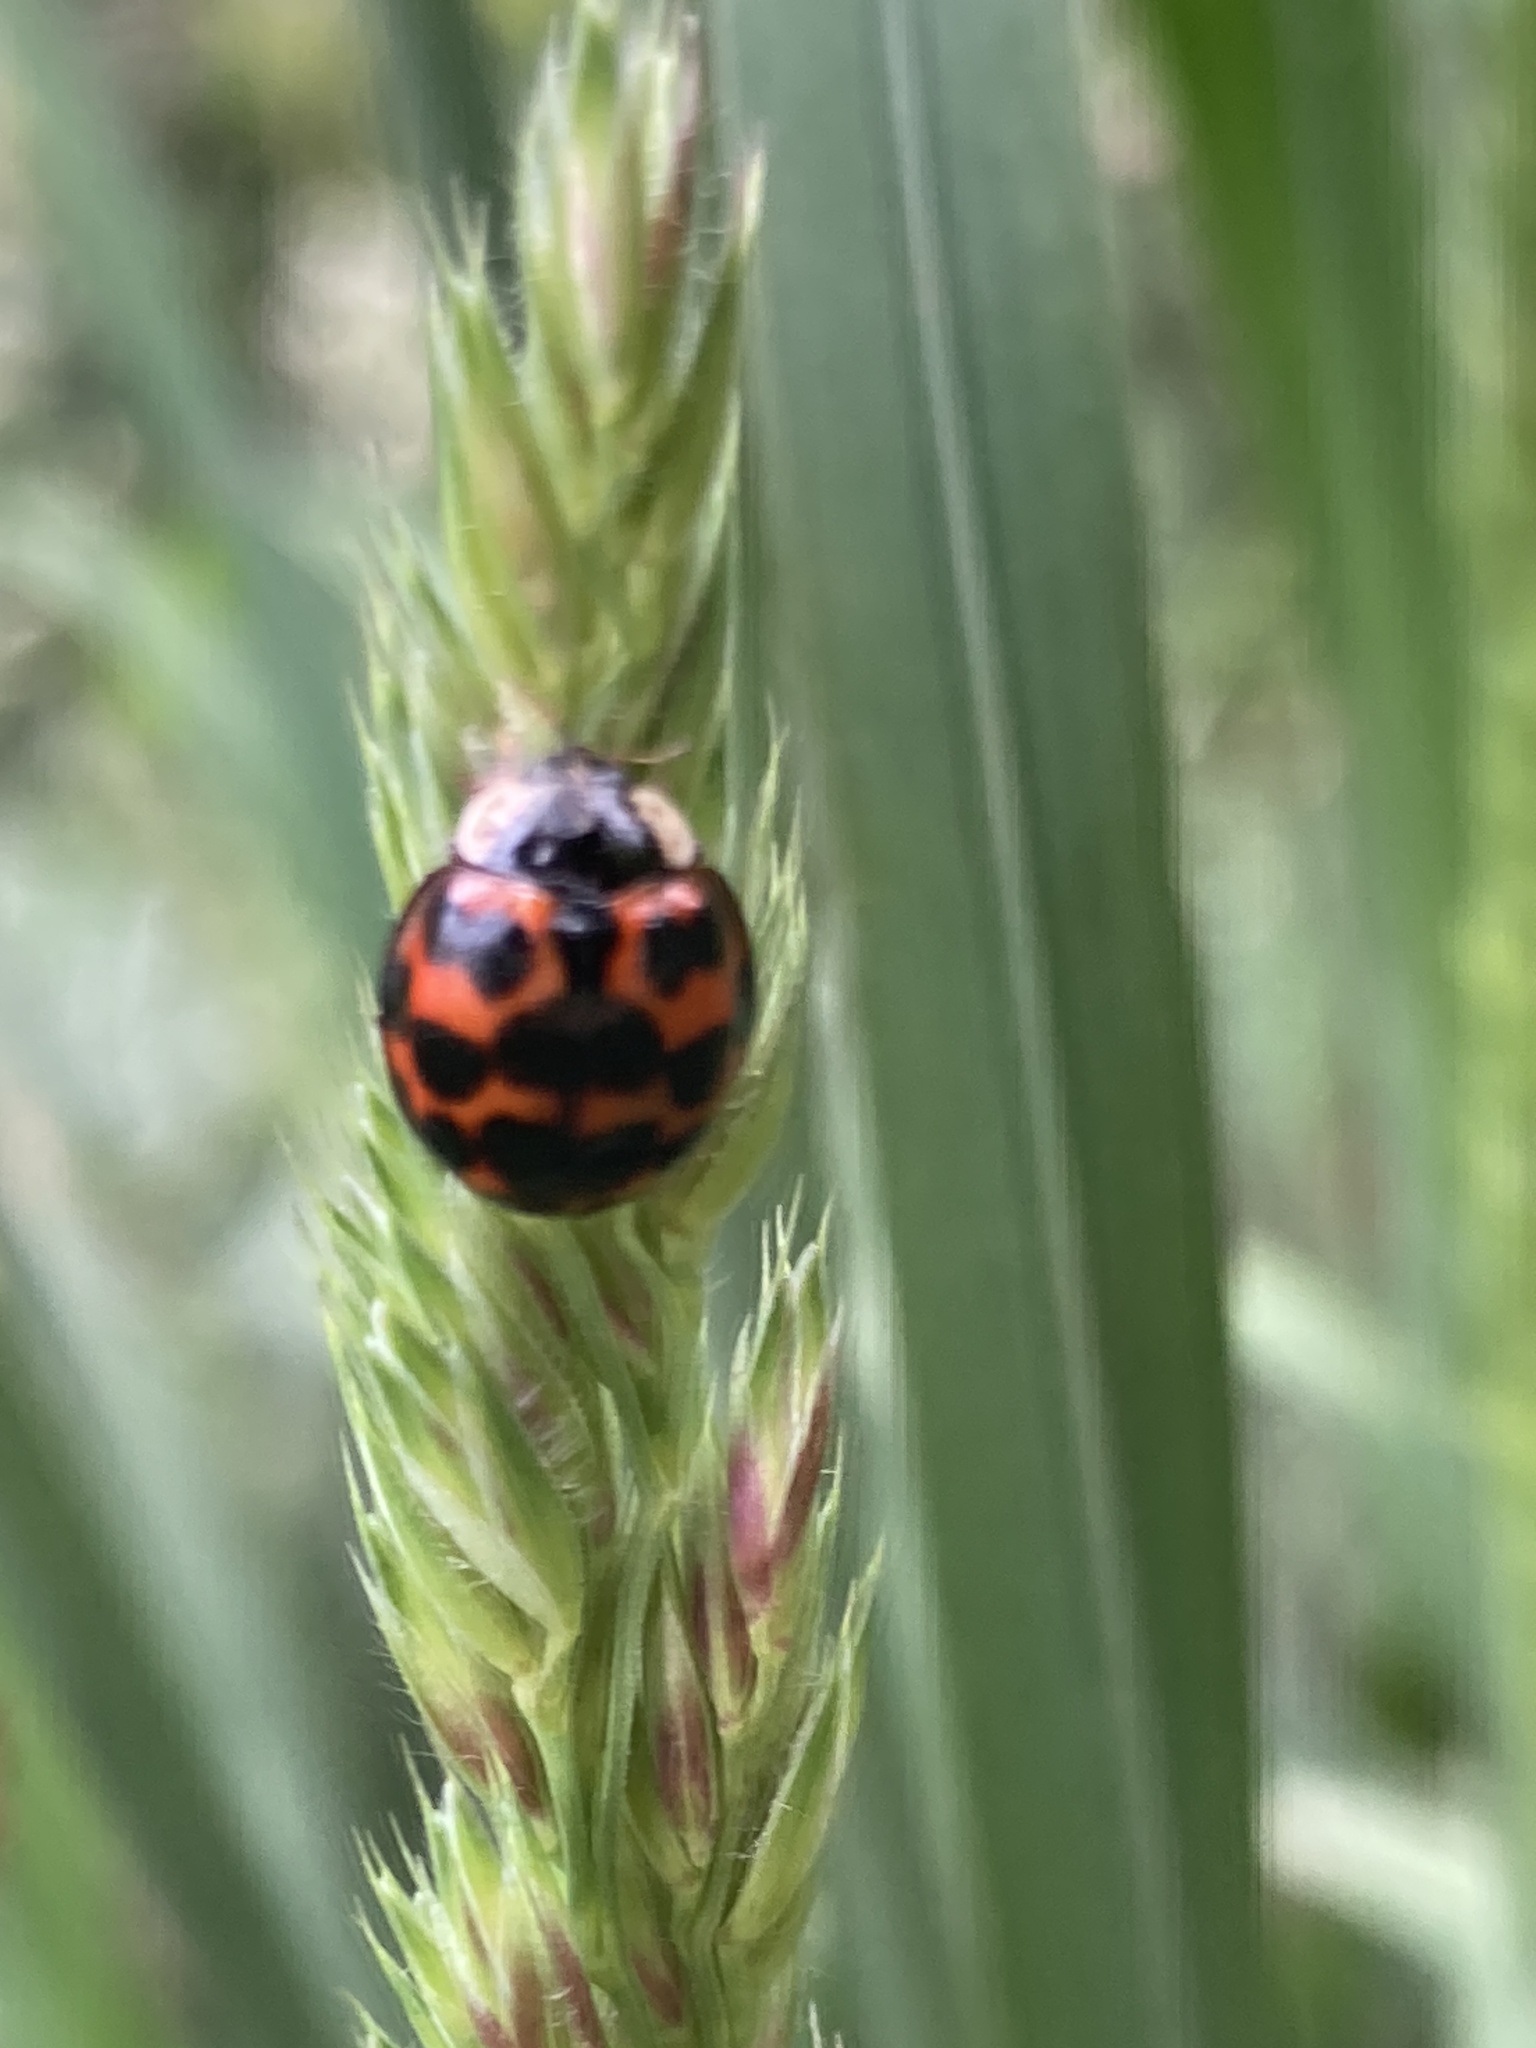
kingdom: Animalia
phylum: Arthropoda
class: Insecta
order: Coleoptera
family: Coccinellidae
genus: Harmonia
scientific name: Harmonia axyridis
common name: Harlequin ladybird
